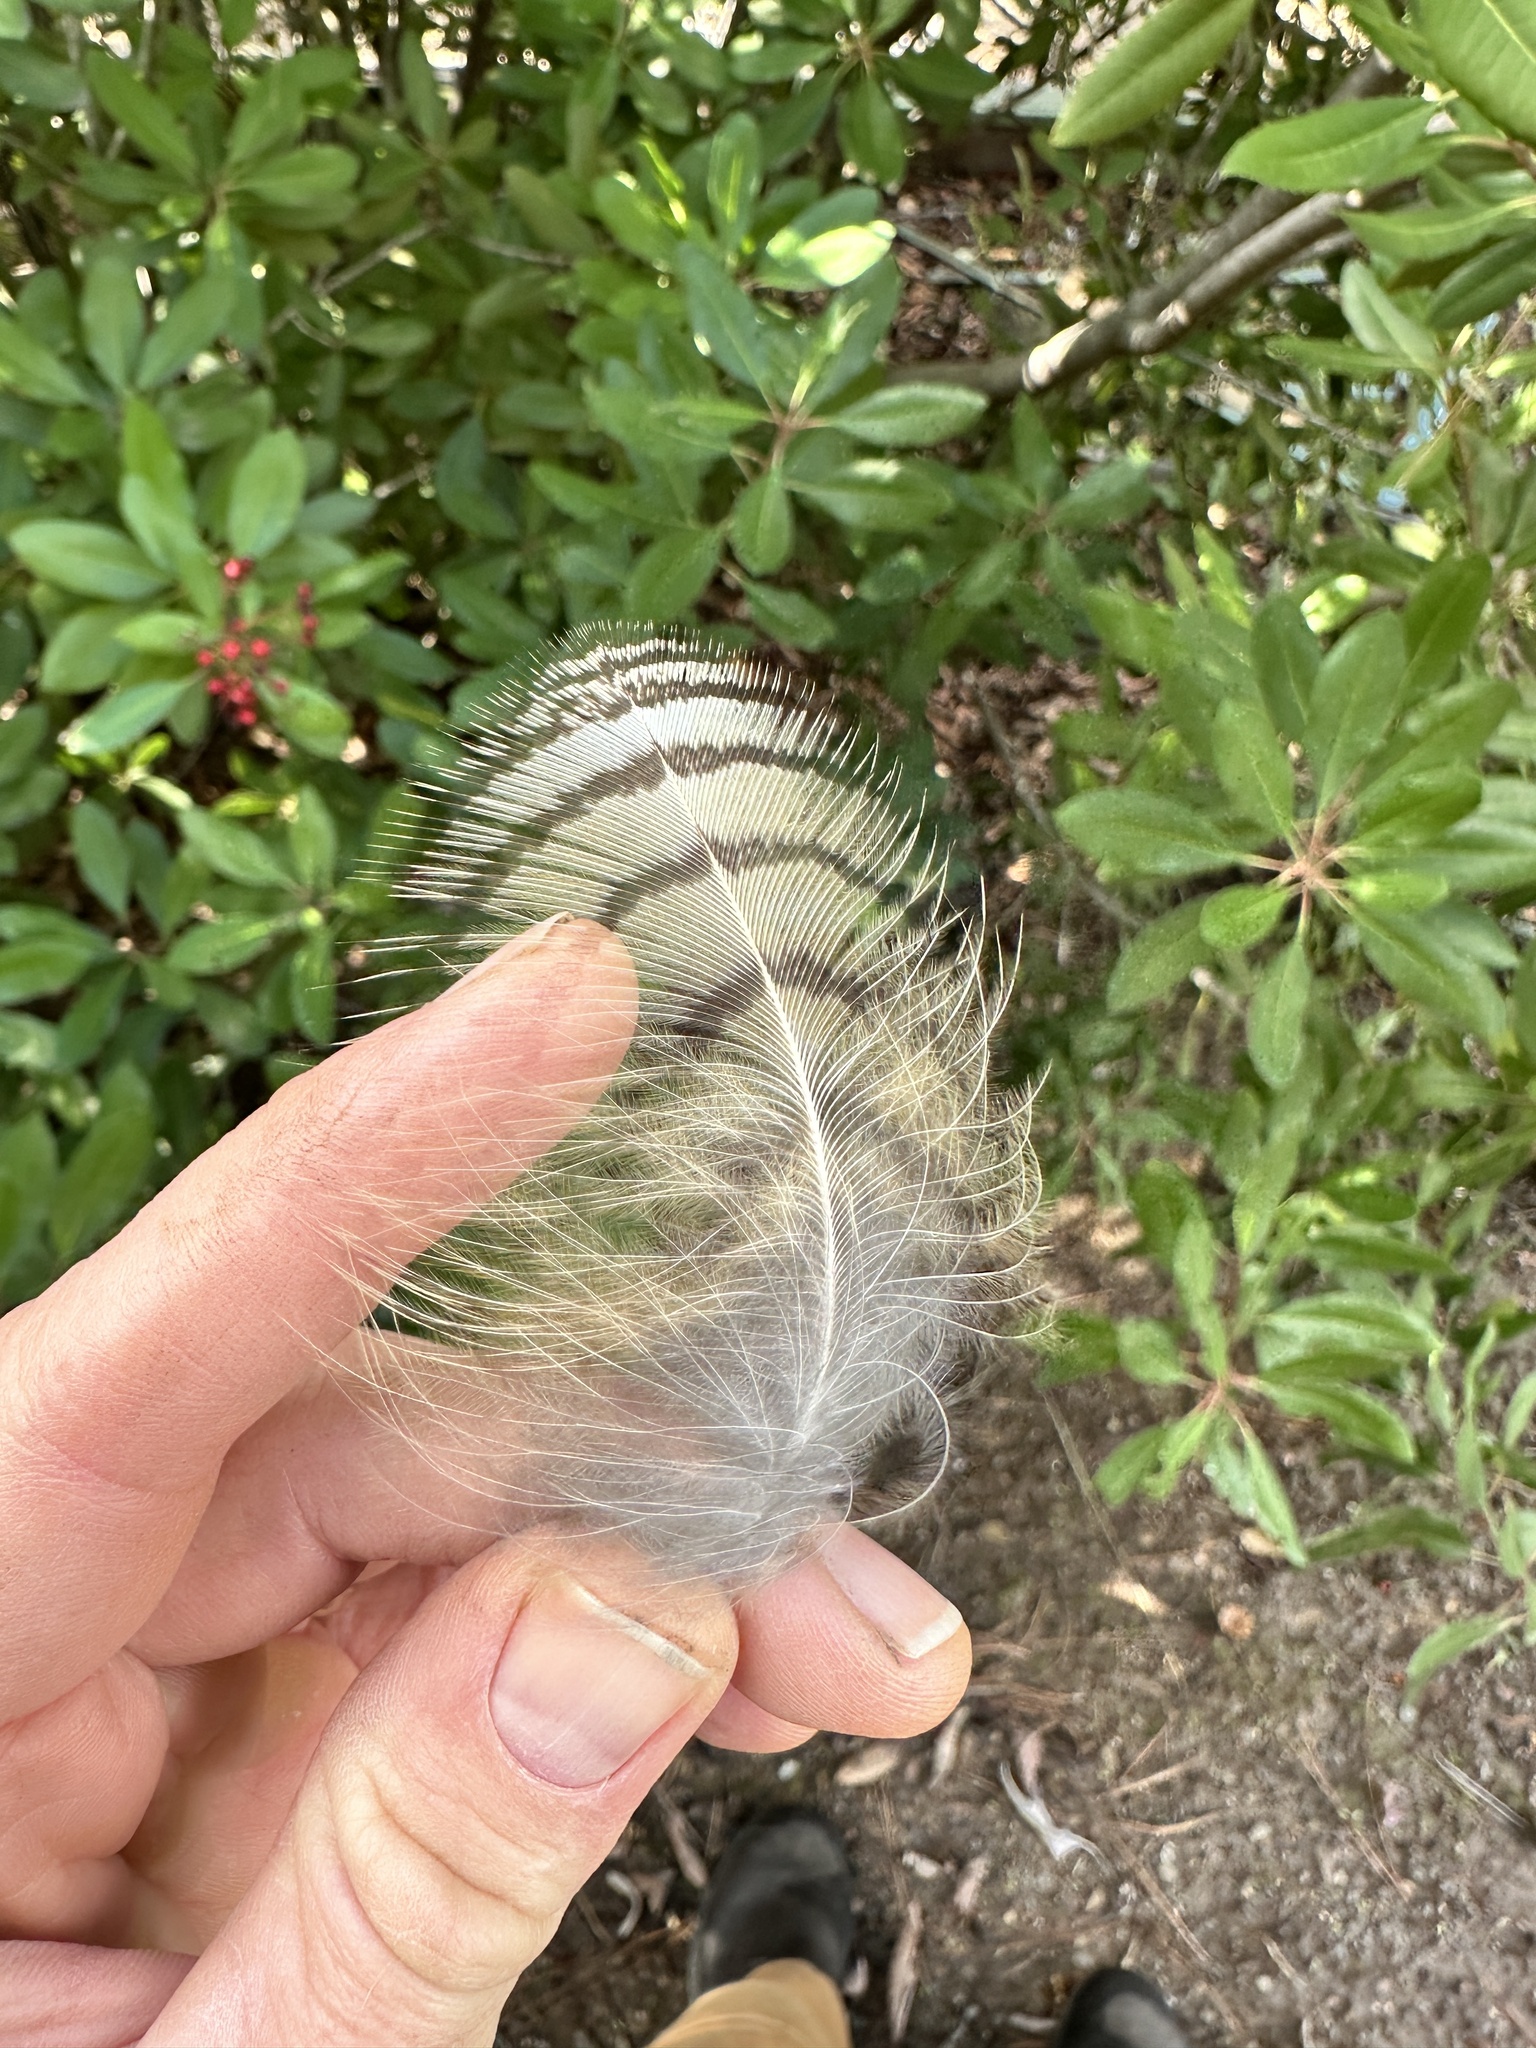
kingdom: Animalia
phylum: Chordata
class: Aves
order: Strigiformes
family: Strigidae
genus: Bubo
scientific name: Bubo virginianus
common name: Great horned owl
